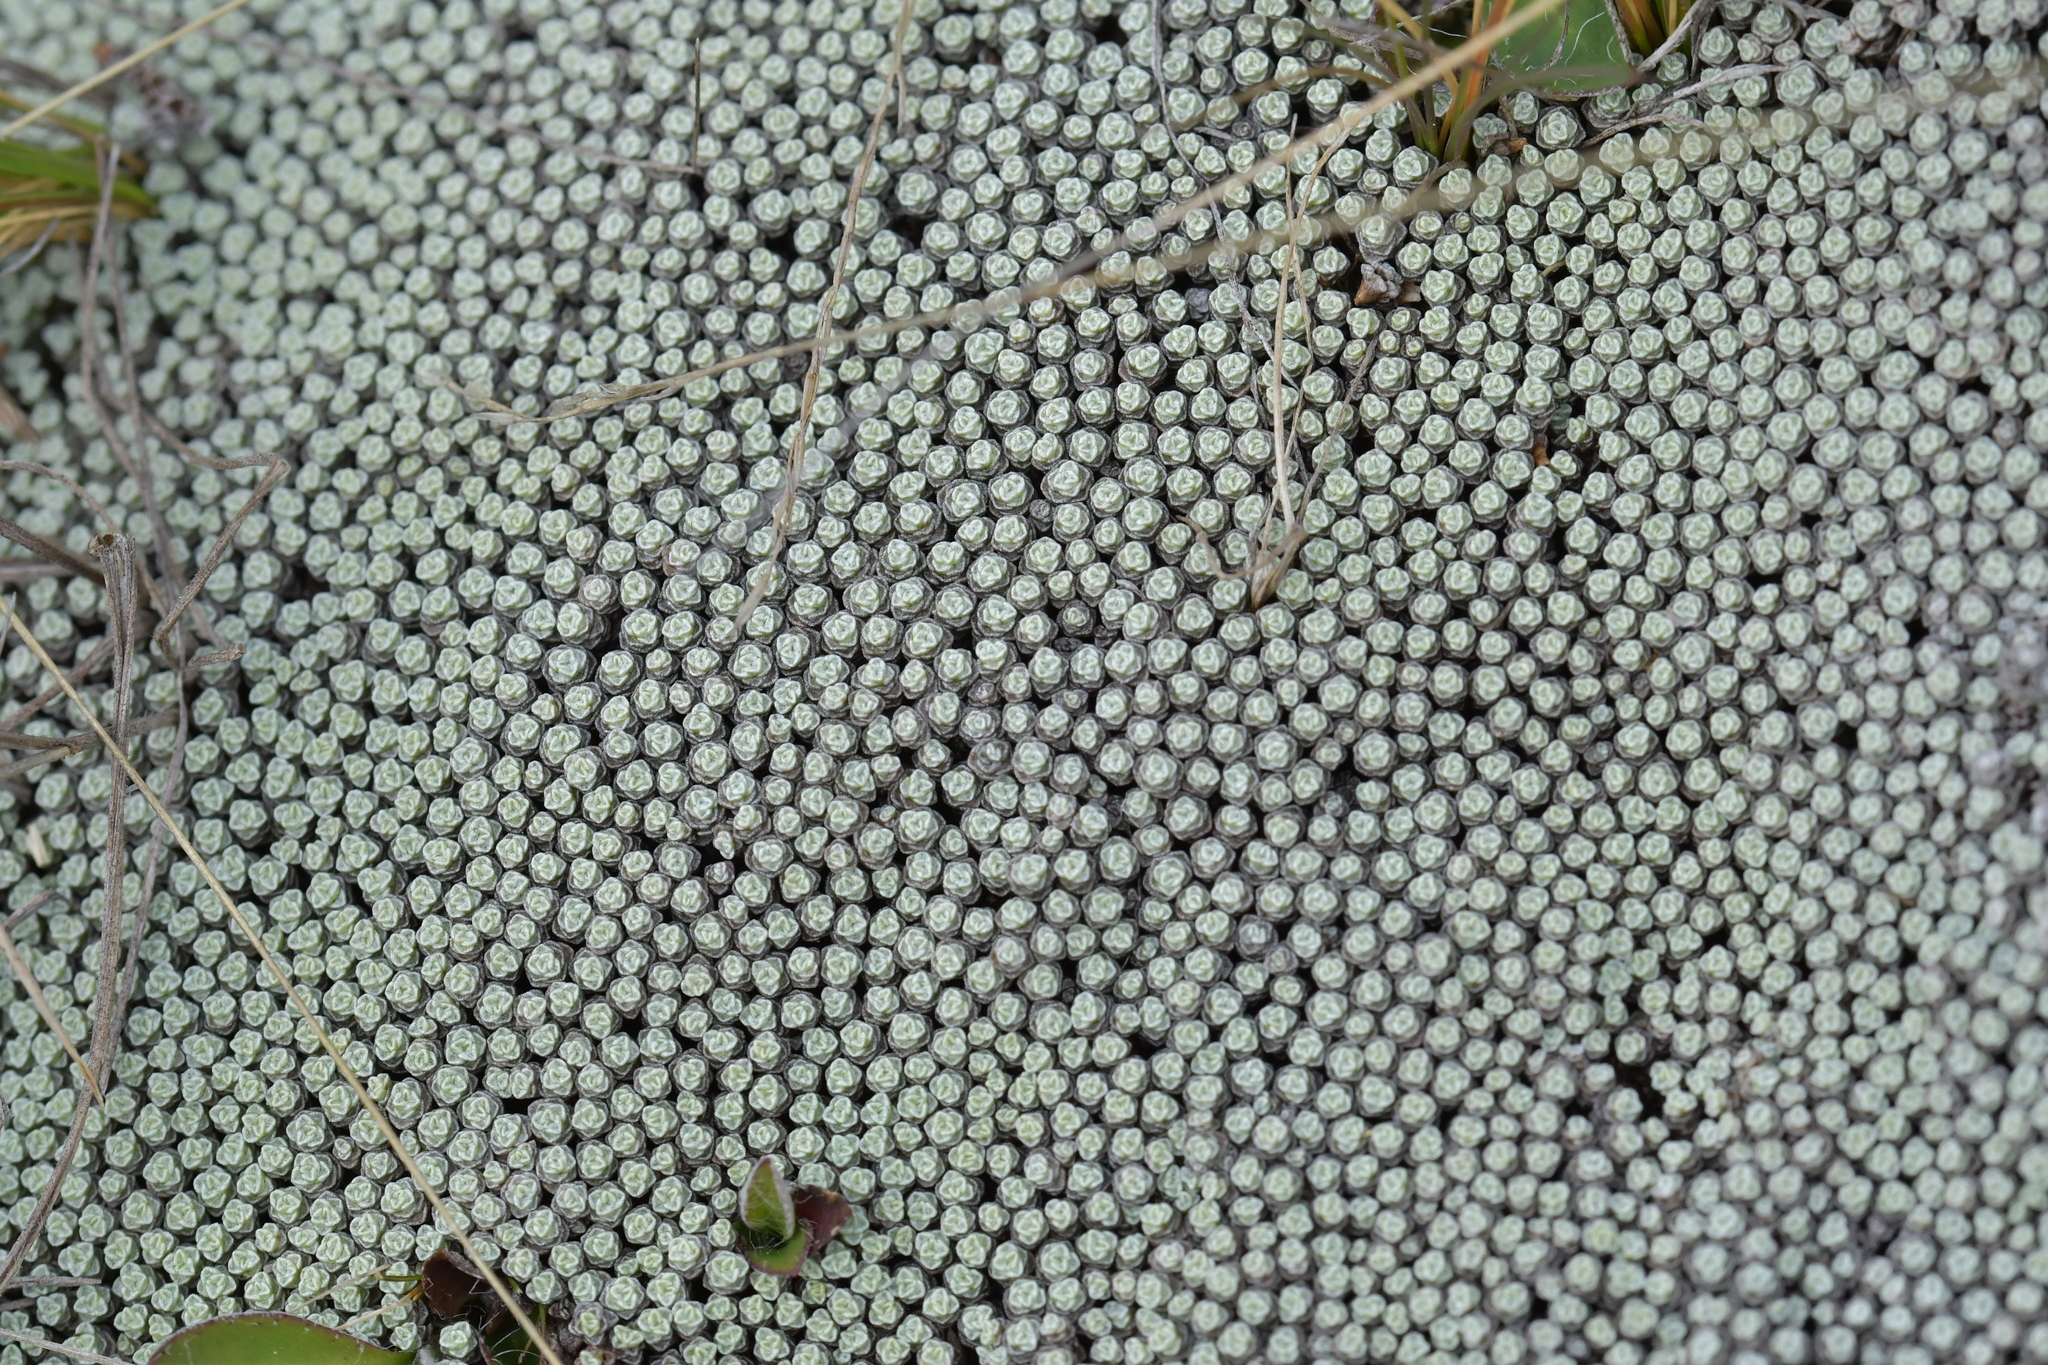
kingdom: Plantae
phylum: Tracheophyta
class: Magnoliopsida
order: Asterales
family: Asteraceae
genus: Raoulia
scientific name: Raoulia australis
